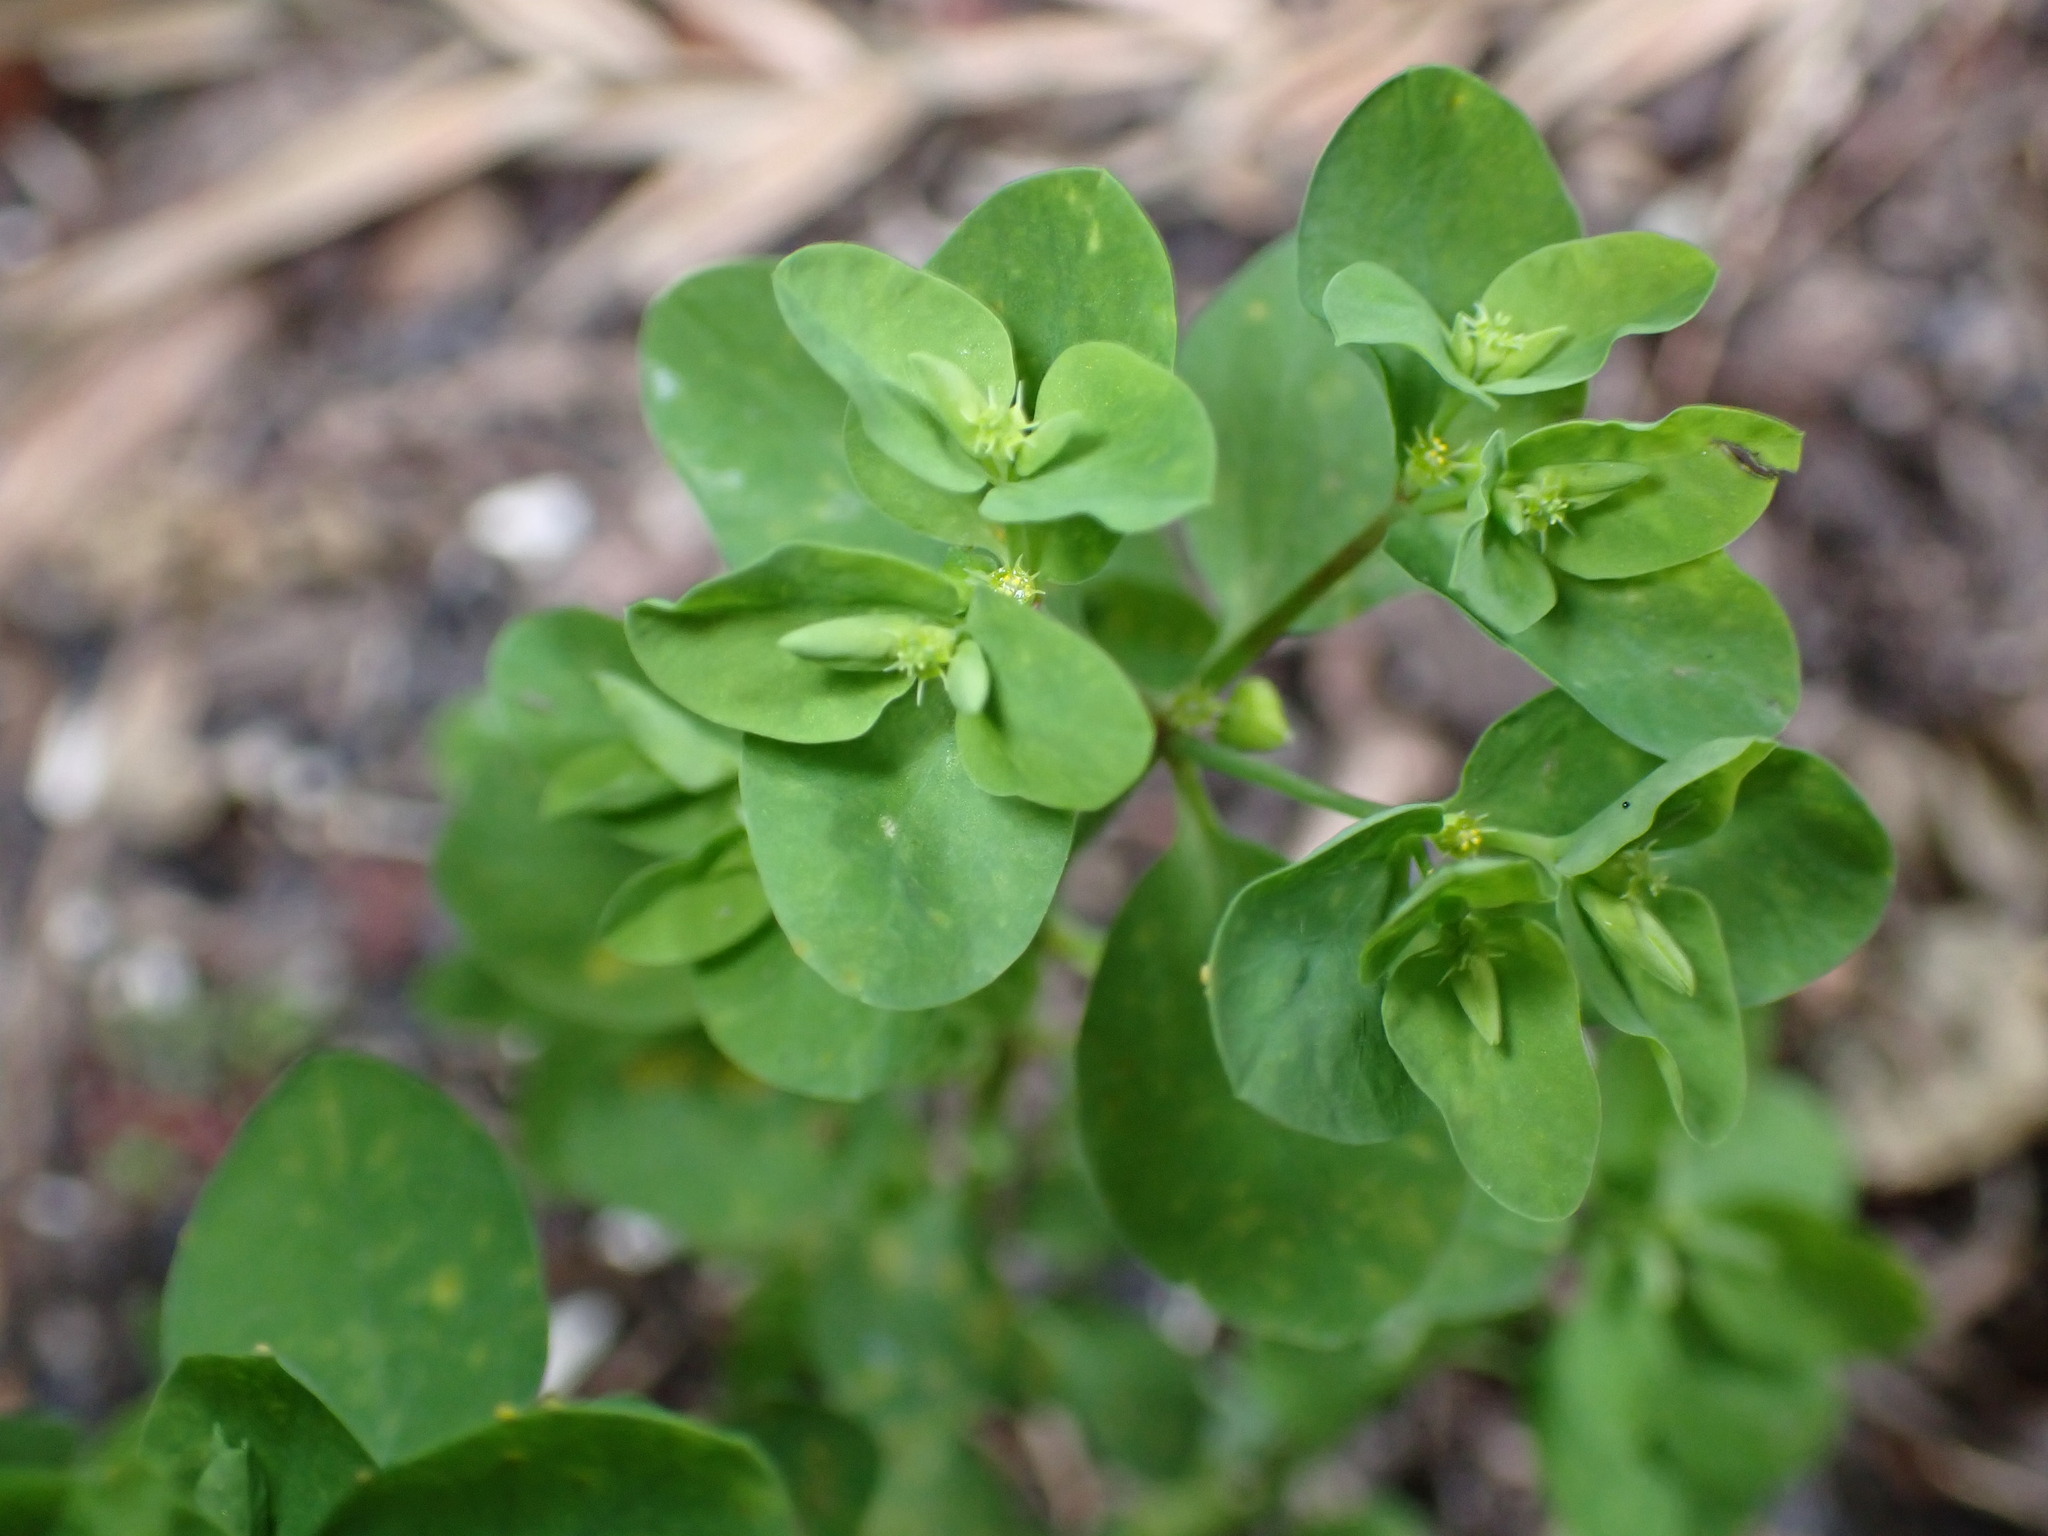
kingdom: Plantae
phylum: Tracheophyta
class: Magnoliopsida
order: Malpighiales
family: Euphorbiaceae
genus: Euphorbia
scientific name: Euphorbia peplus
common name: Petty spurge
